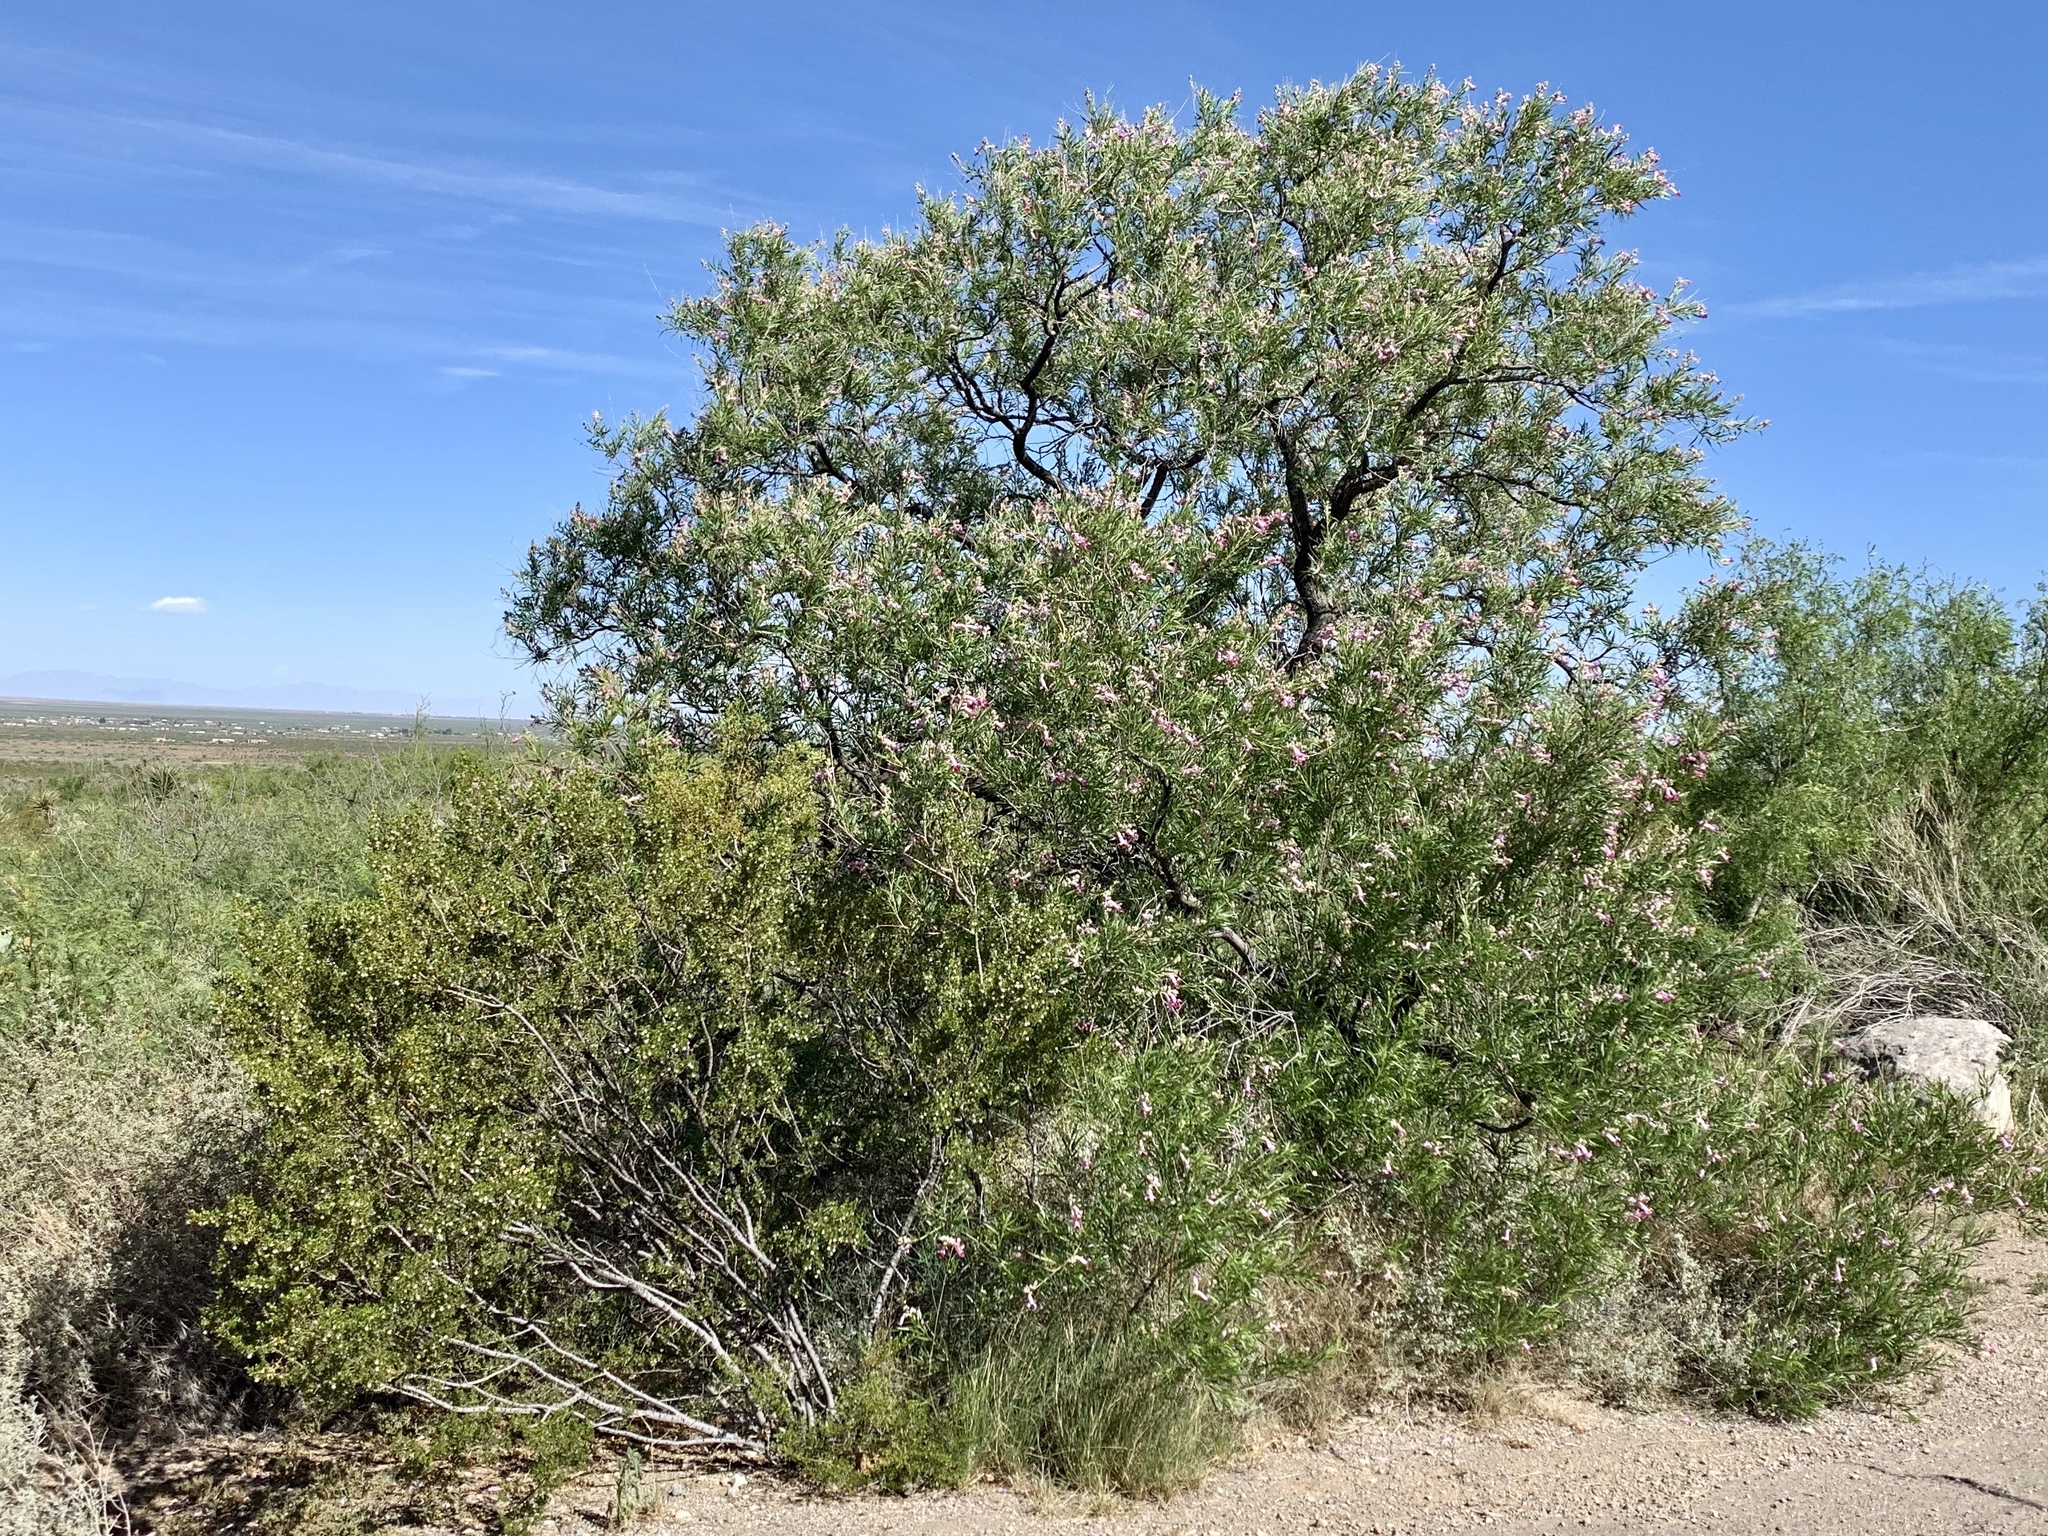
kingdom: Plantae
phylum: Tracheophyta
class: Magnoliopsida
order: Lamiales
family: Bignoniaceae
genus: Chilopsis
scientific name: Chilopsis linearis
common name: Desert-willow
